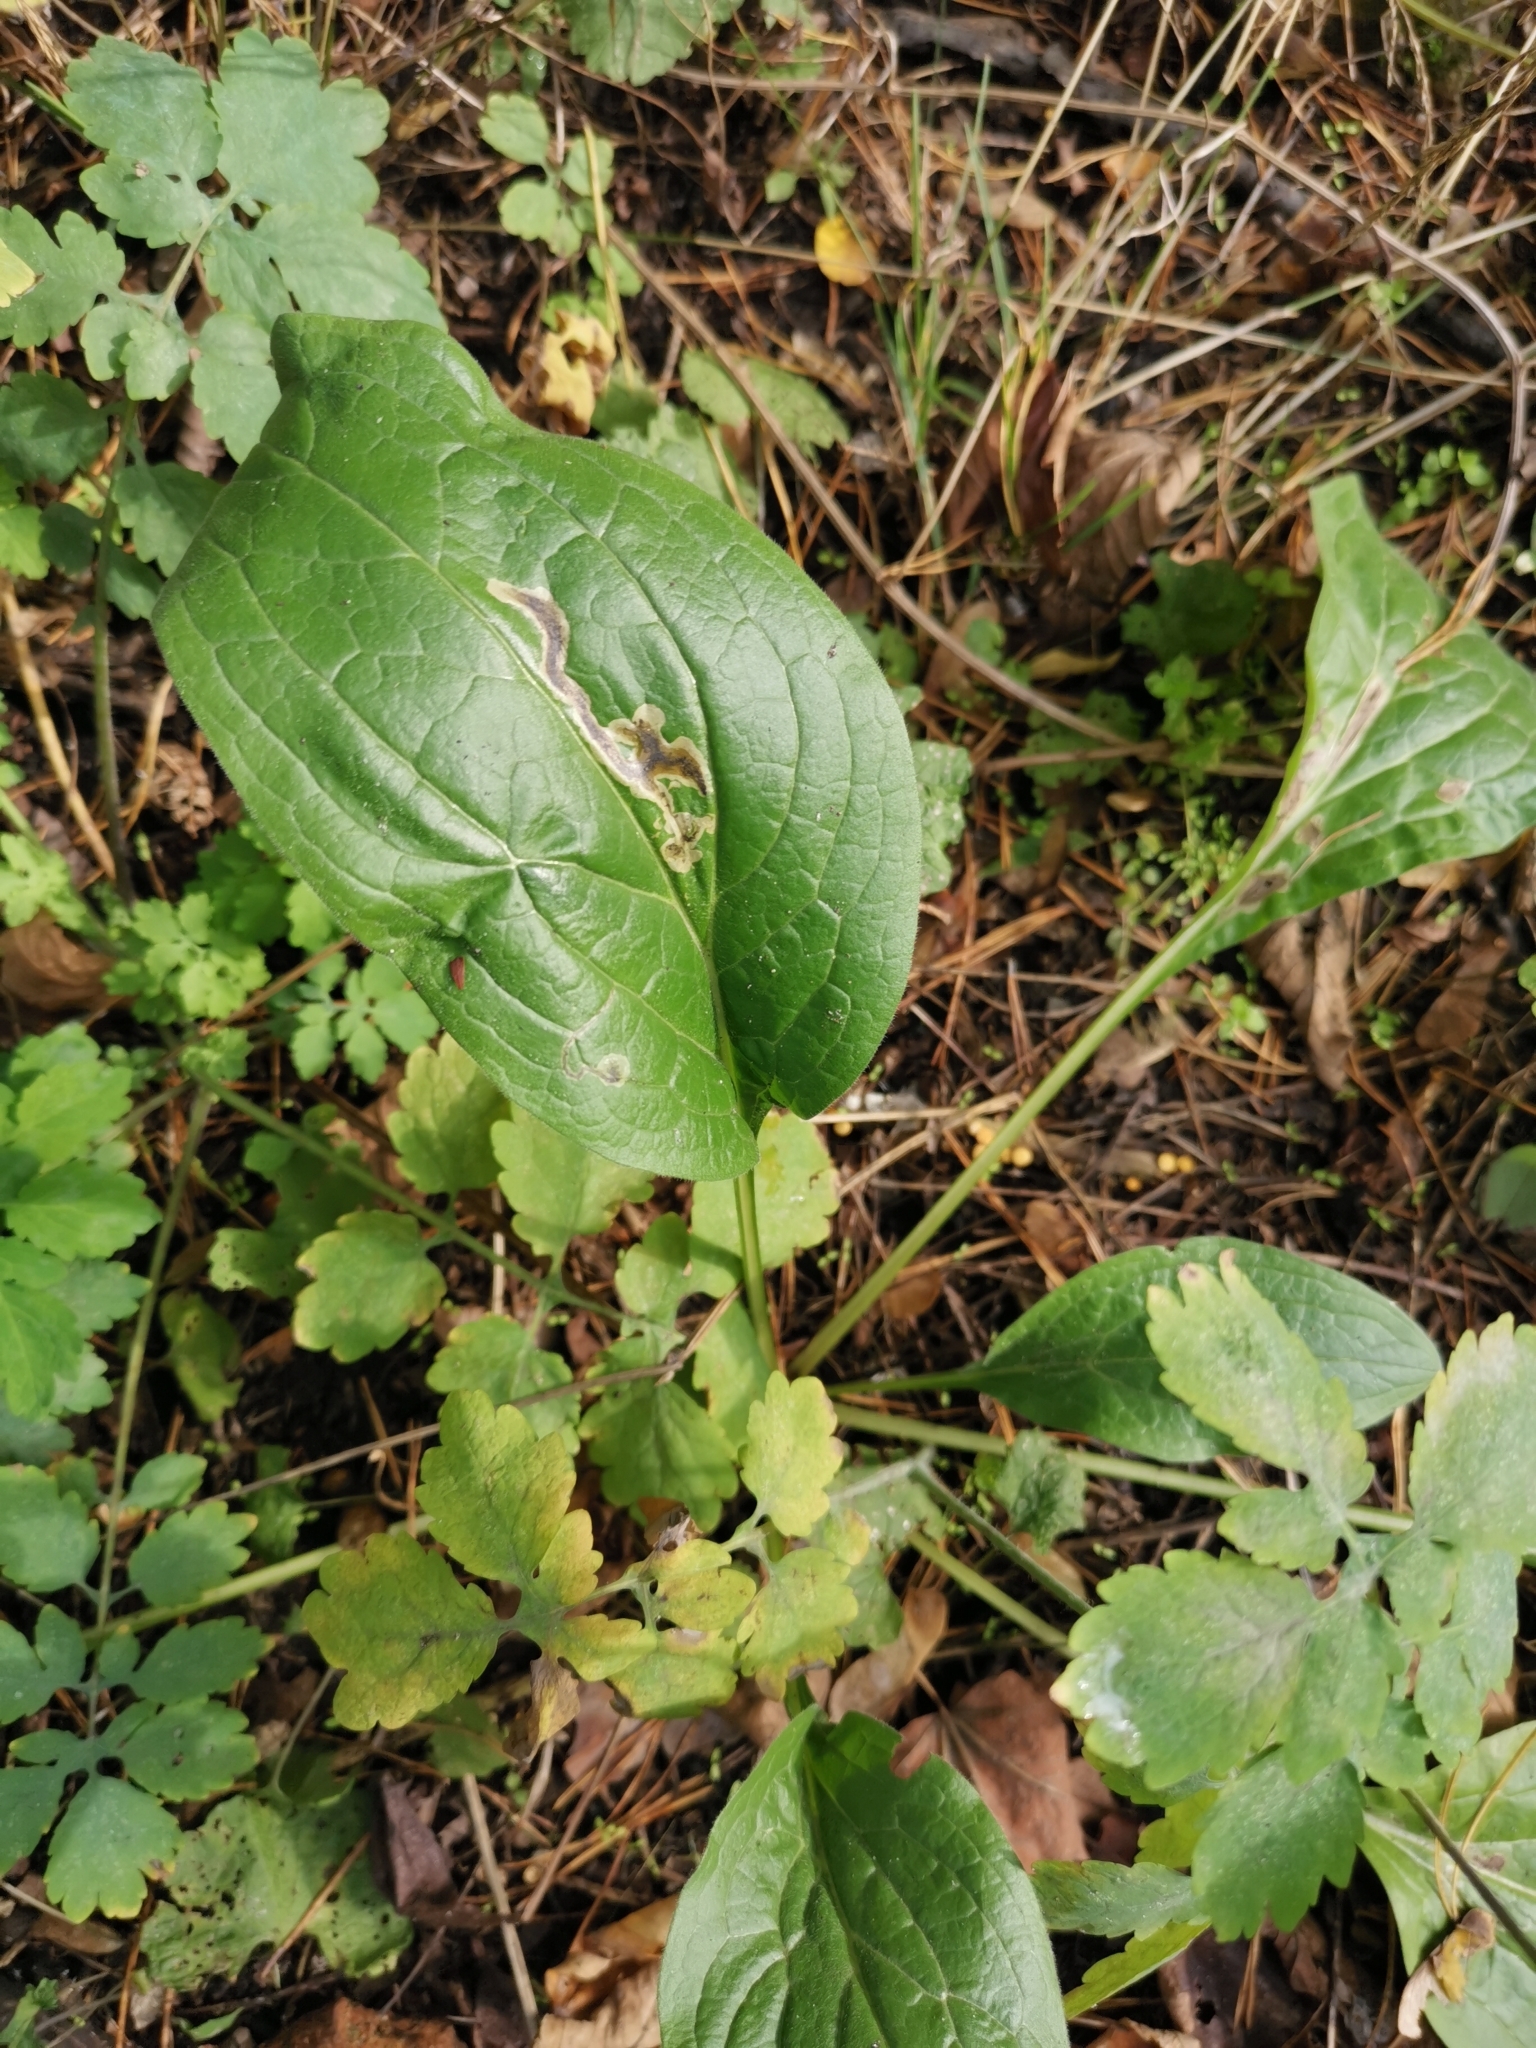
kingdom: Plantae
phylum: Tracheophyta
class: Magnoliopsida
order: Boraginales
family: Boraginaceae
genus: Cynoglossum
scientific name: Cynoglossum officinale
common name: Hound's-tongue
